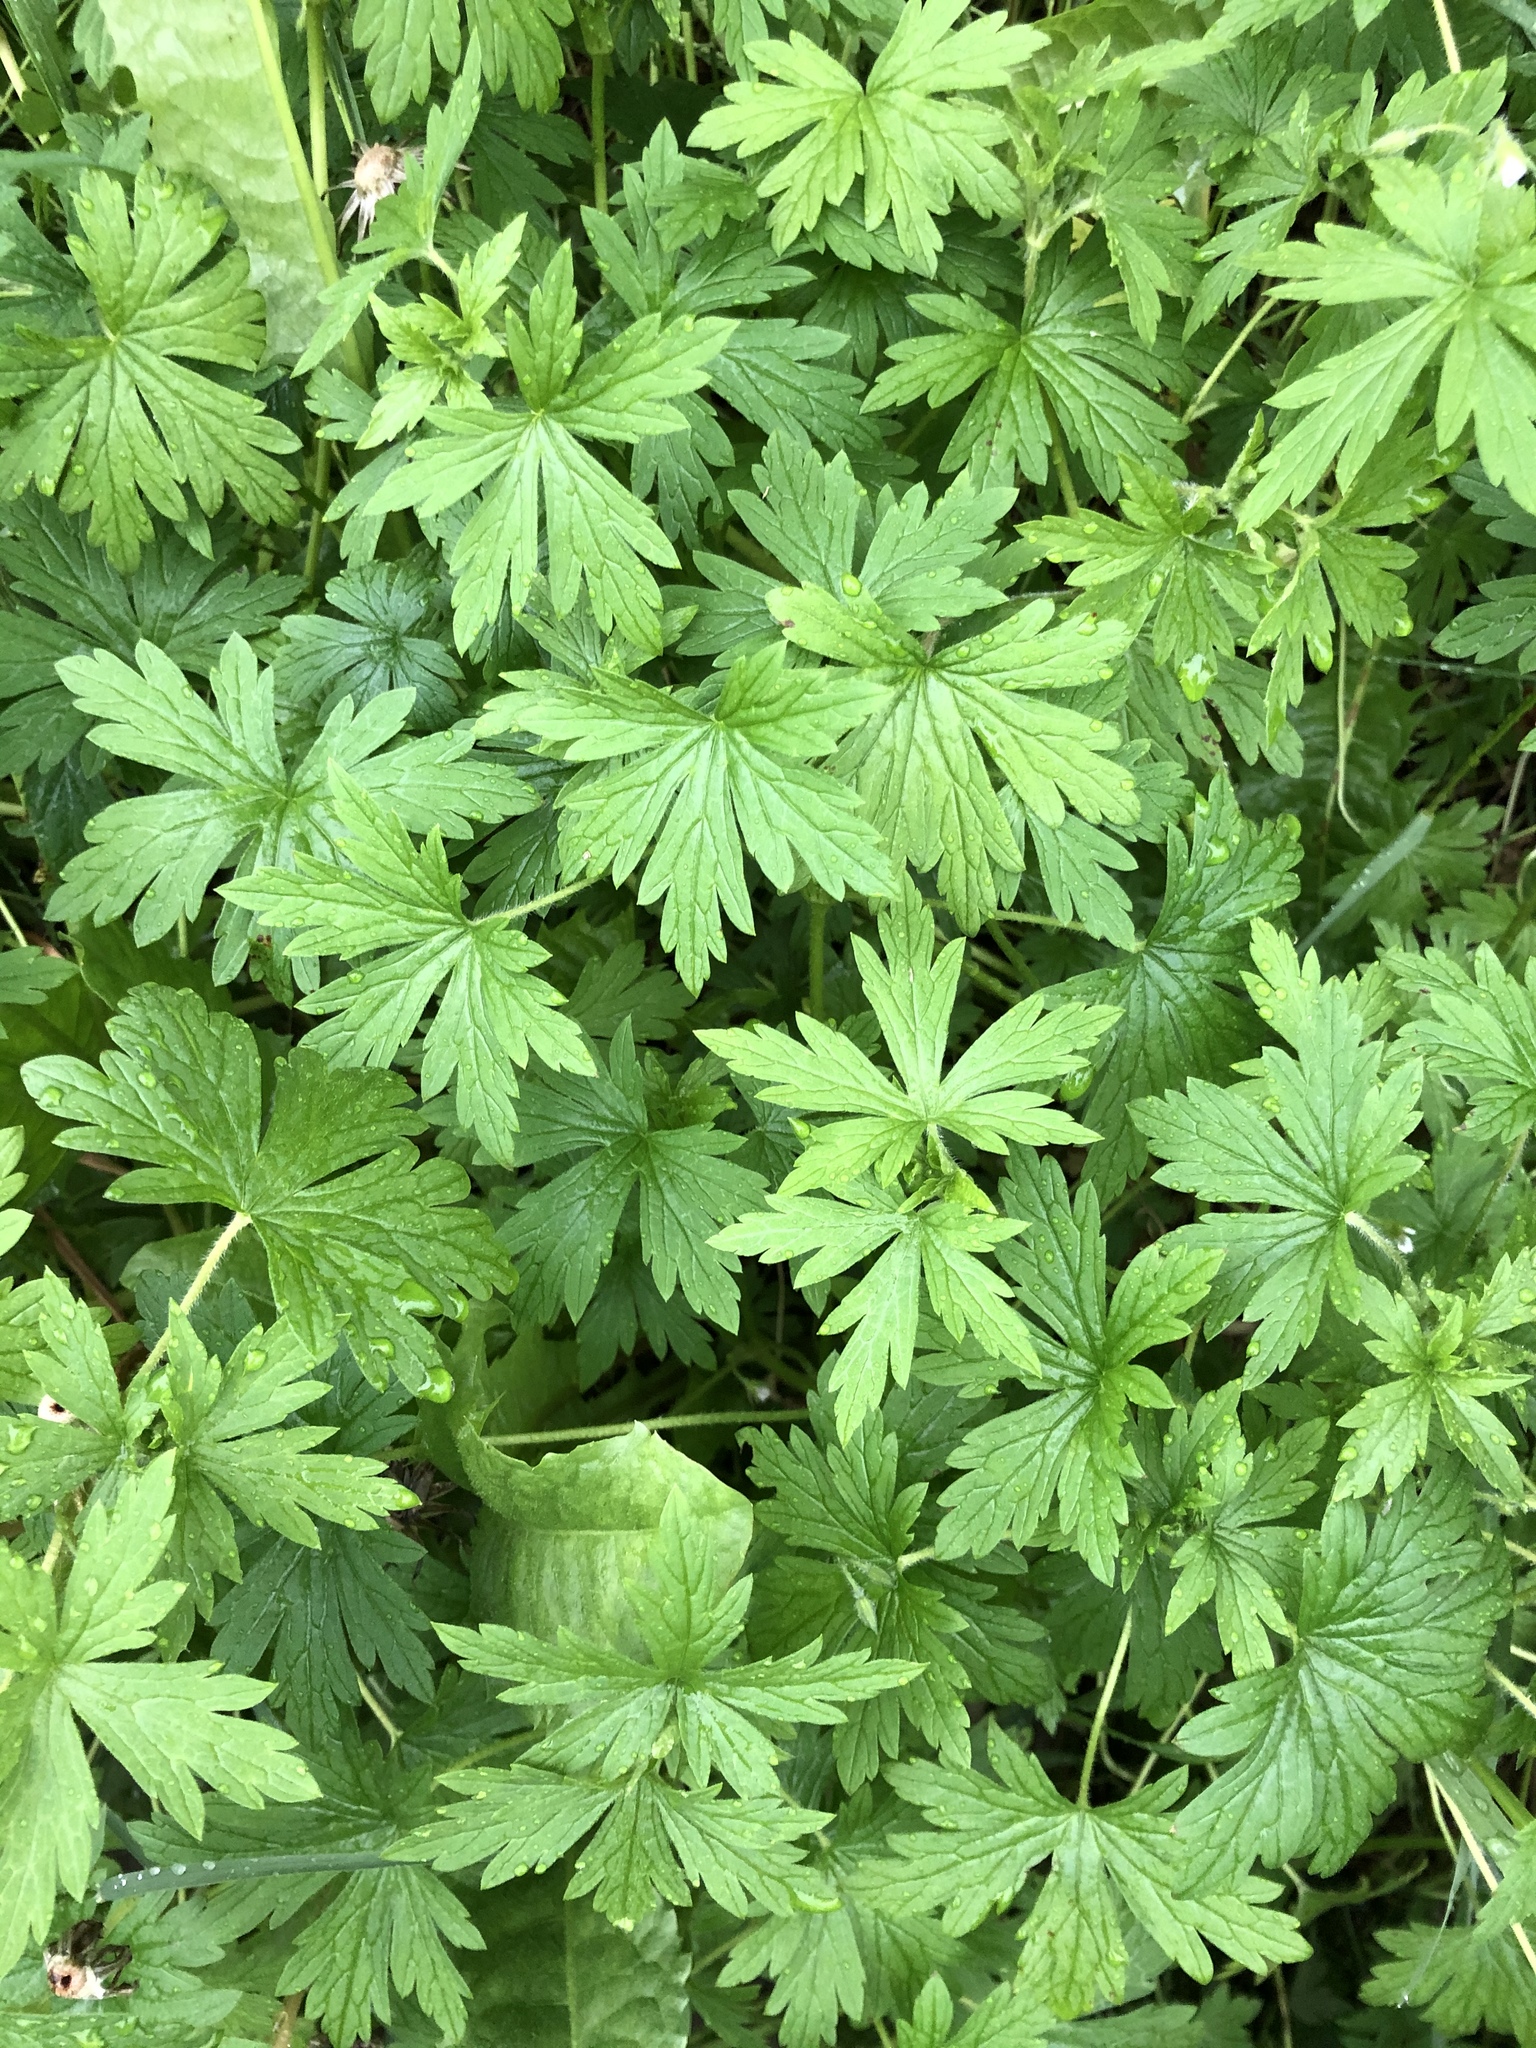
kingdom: Plantae
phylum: Tracheophyta
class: Magnoliopsida
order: Geraniales
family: Geraniaceae
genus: Geranium
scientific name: Geranium sibiricum
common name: Siberian crane's-bill
